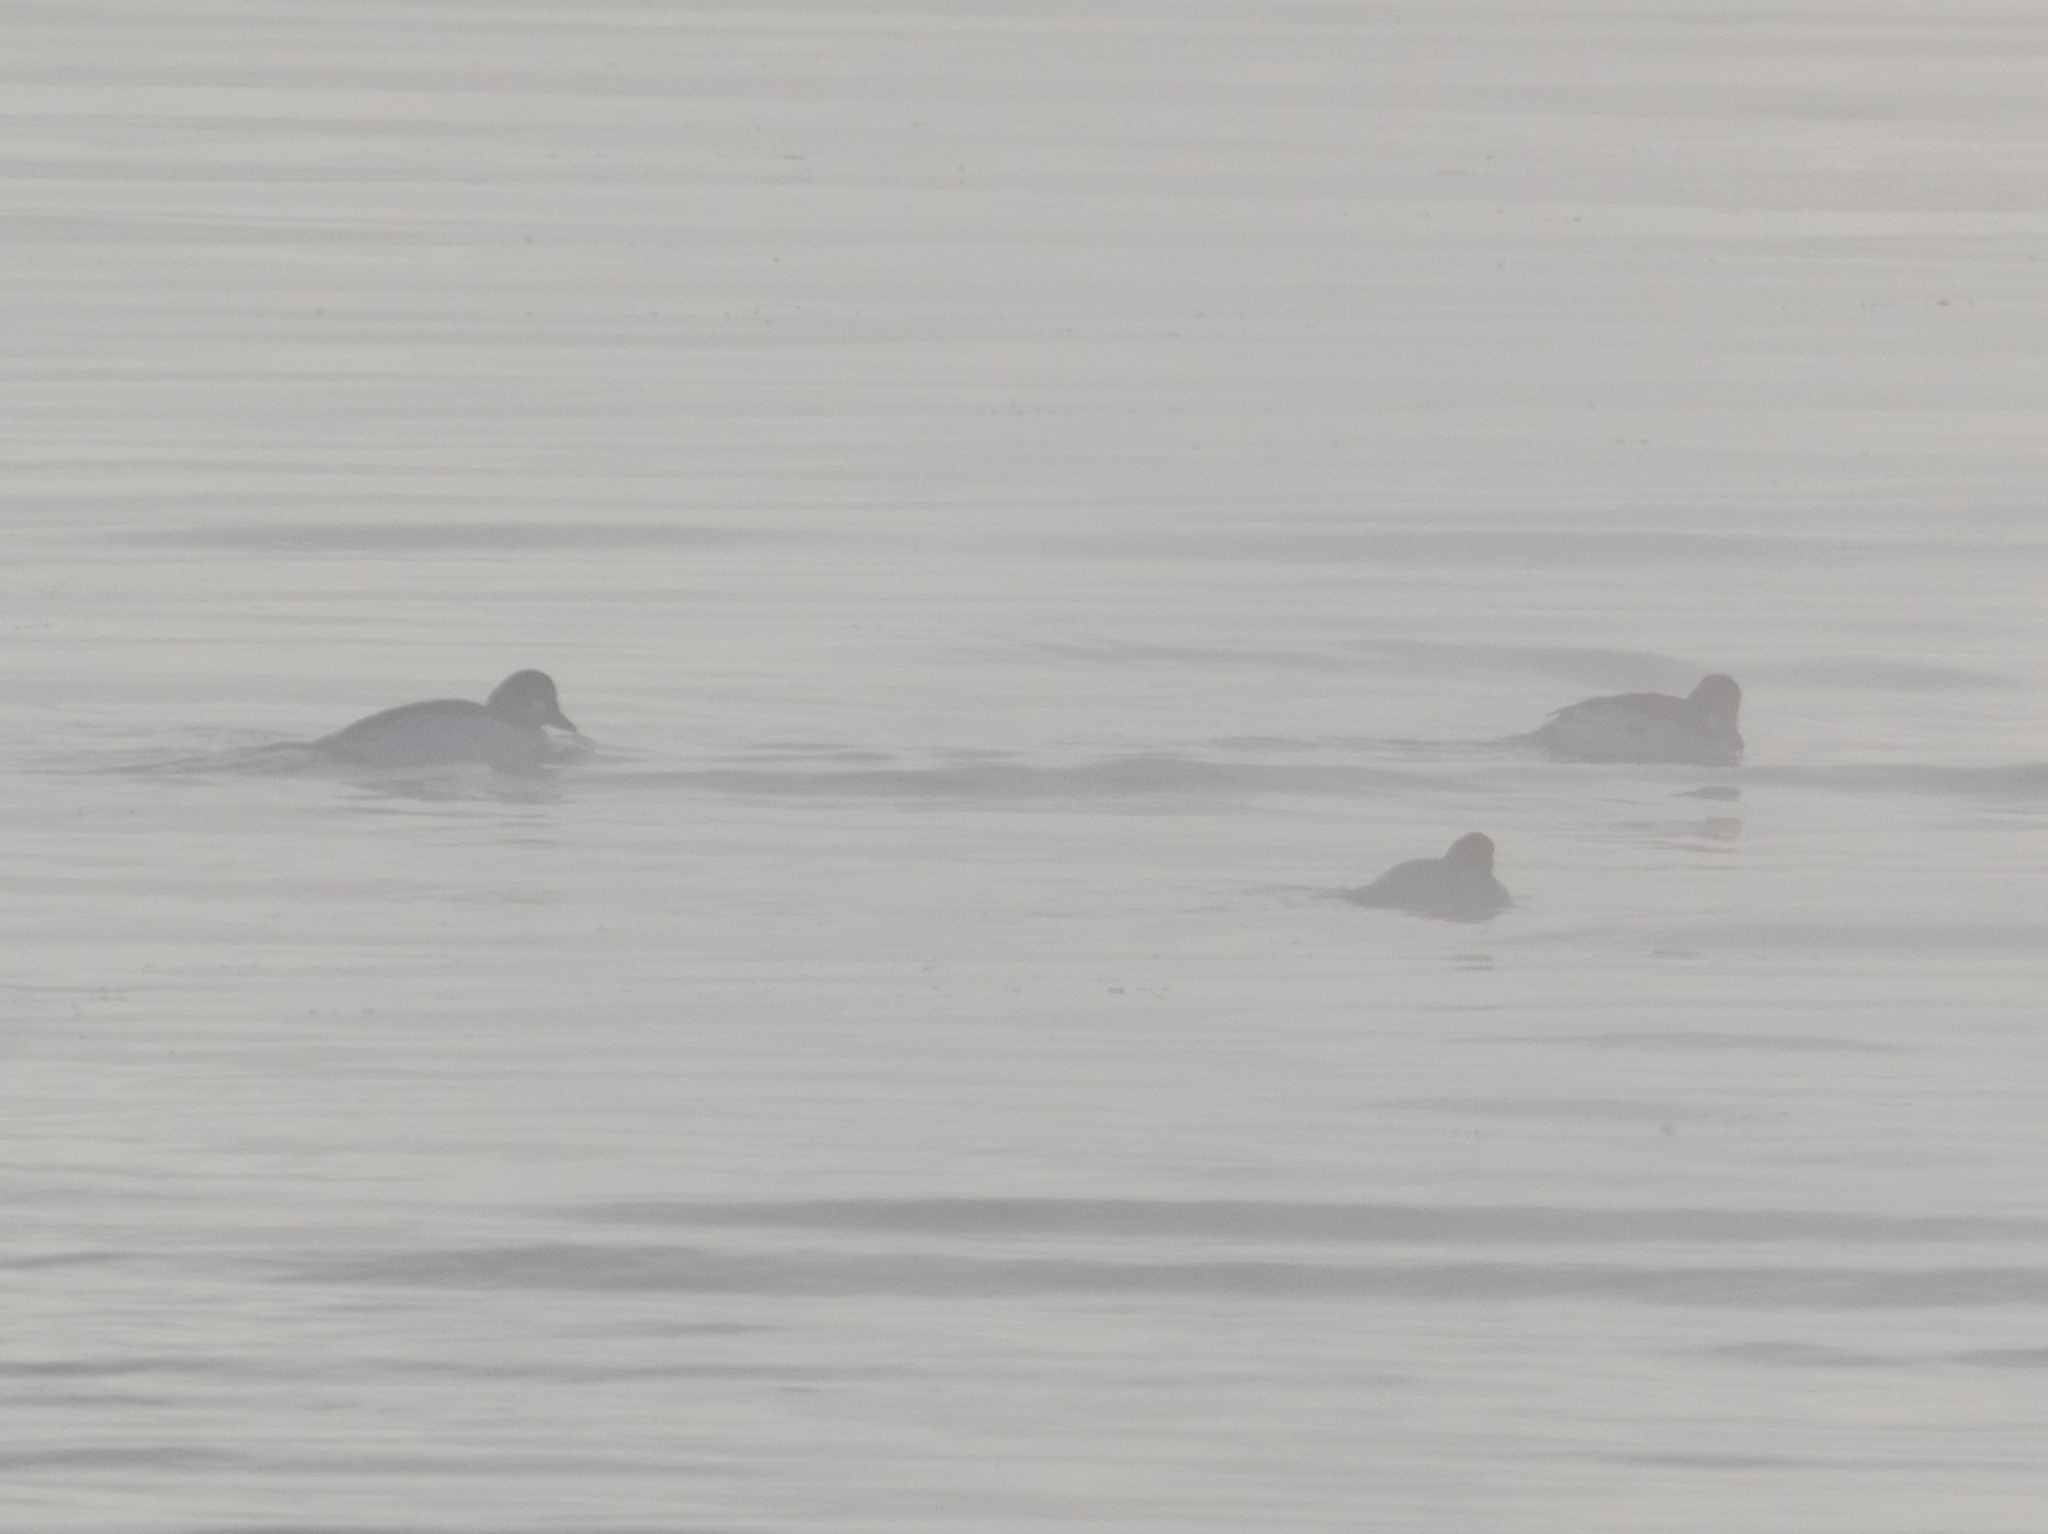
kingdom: Animalia
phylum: Chordata
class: Aves
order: Anseriformes
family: Anatidae
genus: Bucephala
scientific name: Bucephala clangula
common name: Common goldeneye
